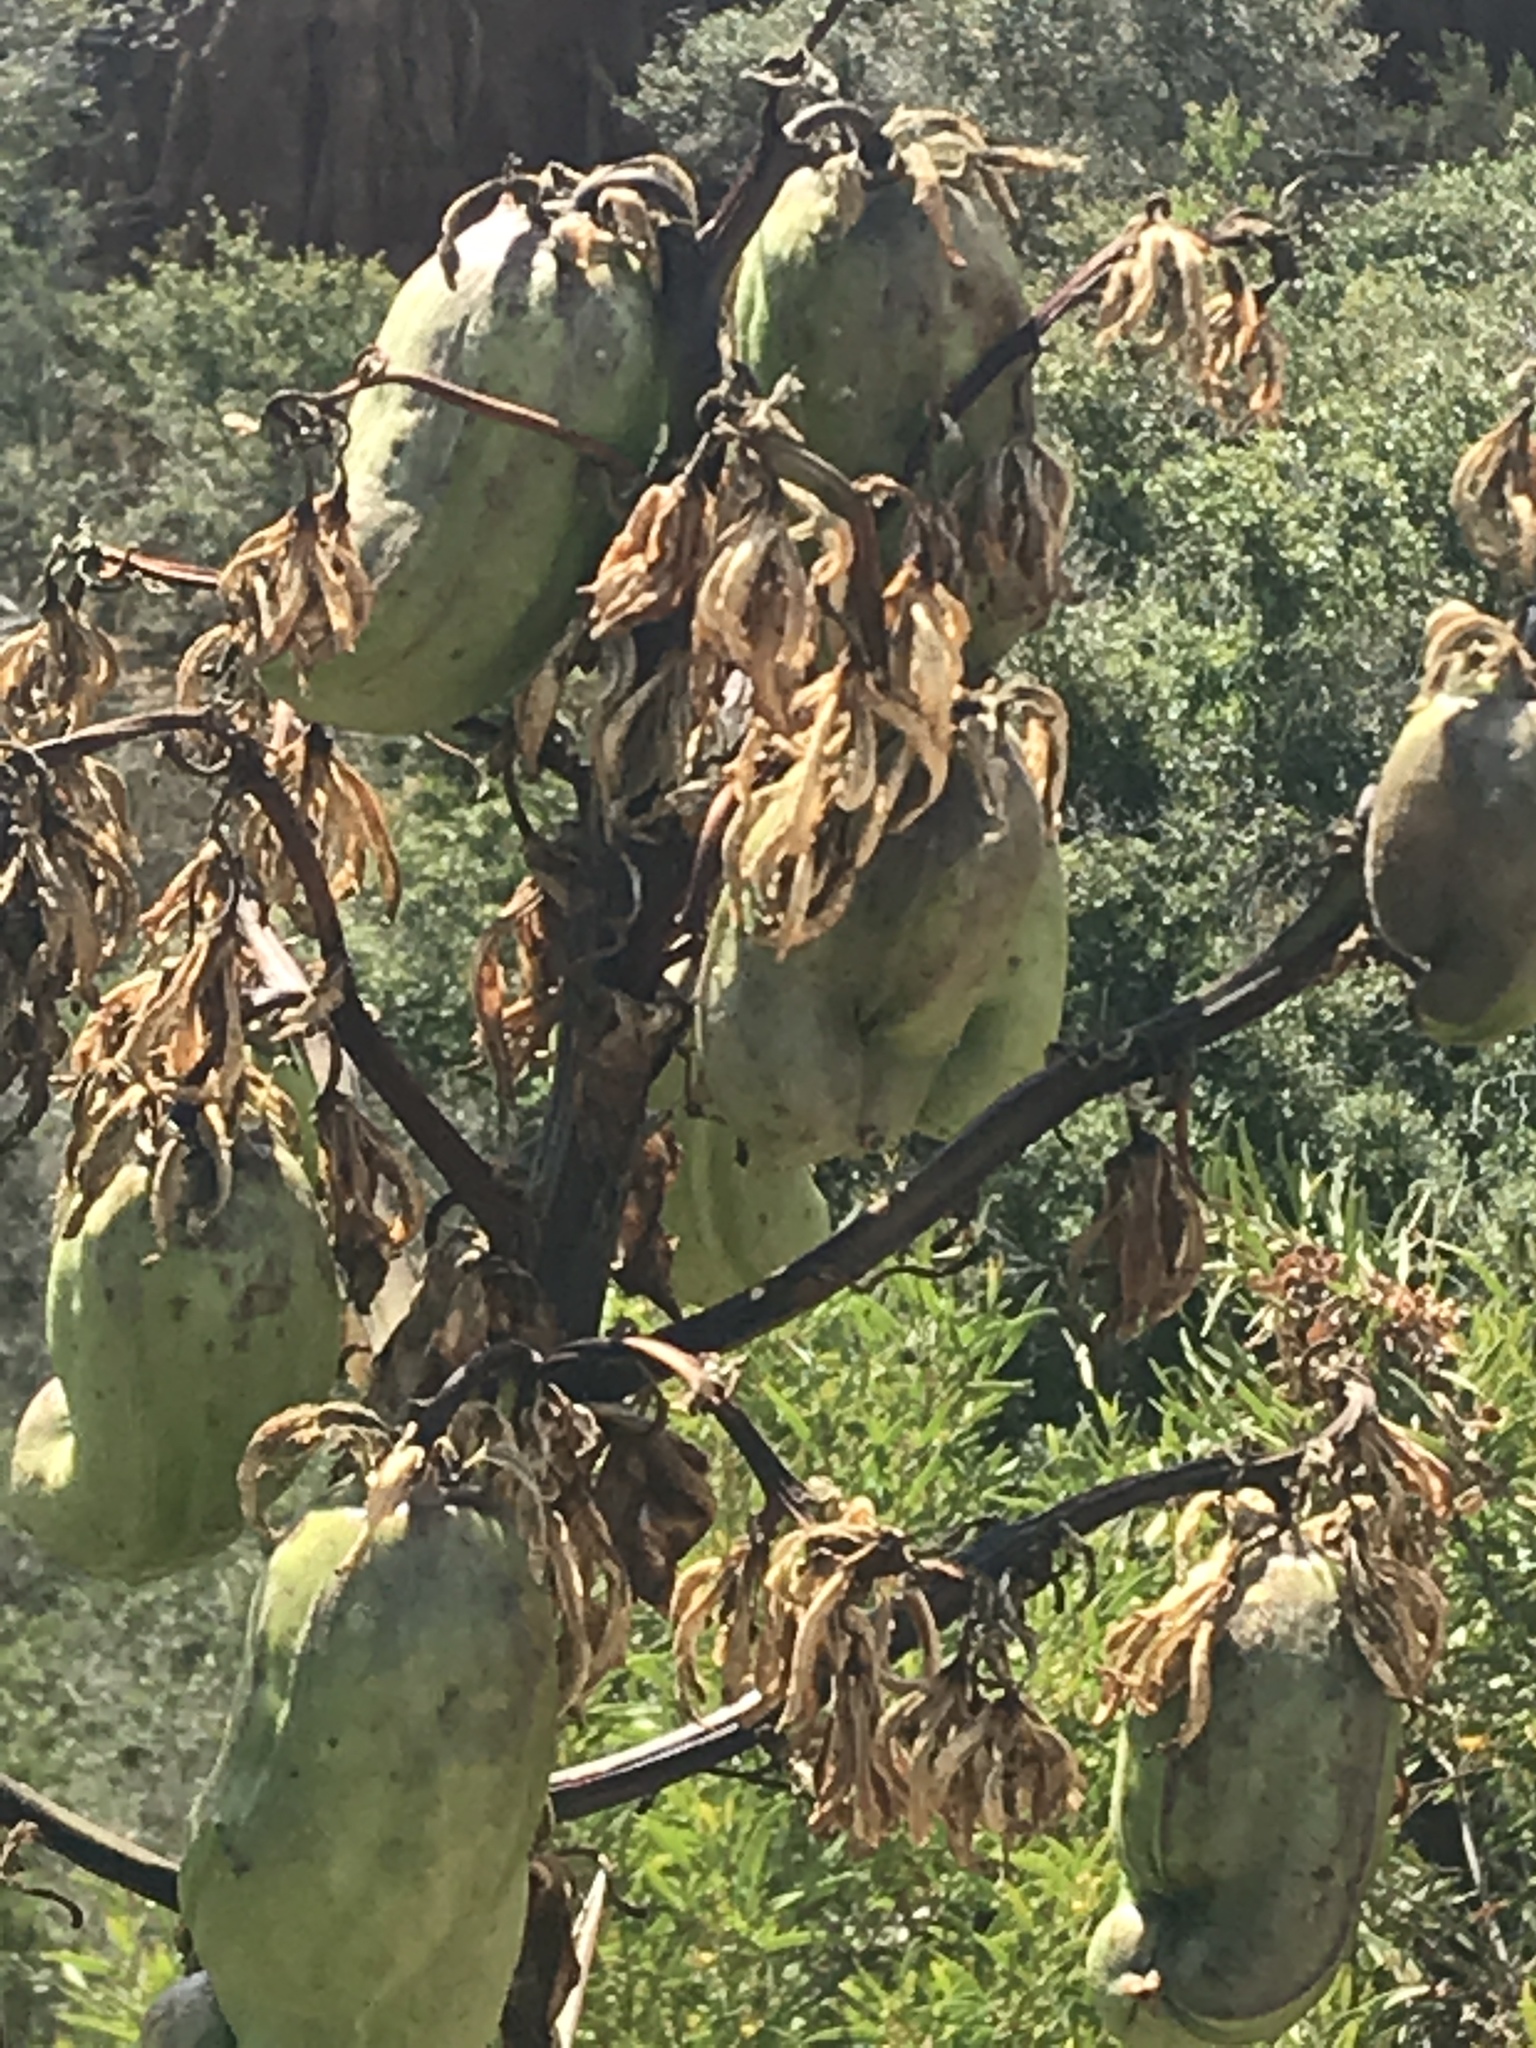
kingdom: Plantae
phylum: Tracheophyta
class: Liliopsida
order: Asparagales
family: Asparagaceae
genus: Yucca
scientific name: Yucca schidigera
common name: Mojave yucca
